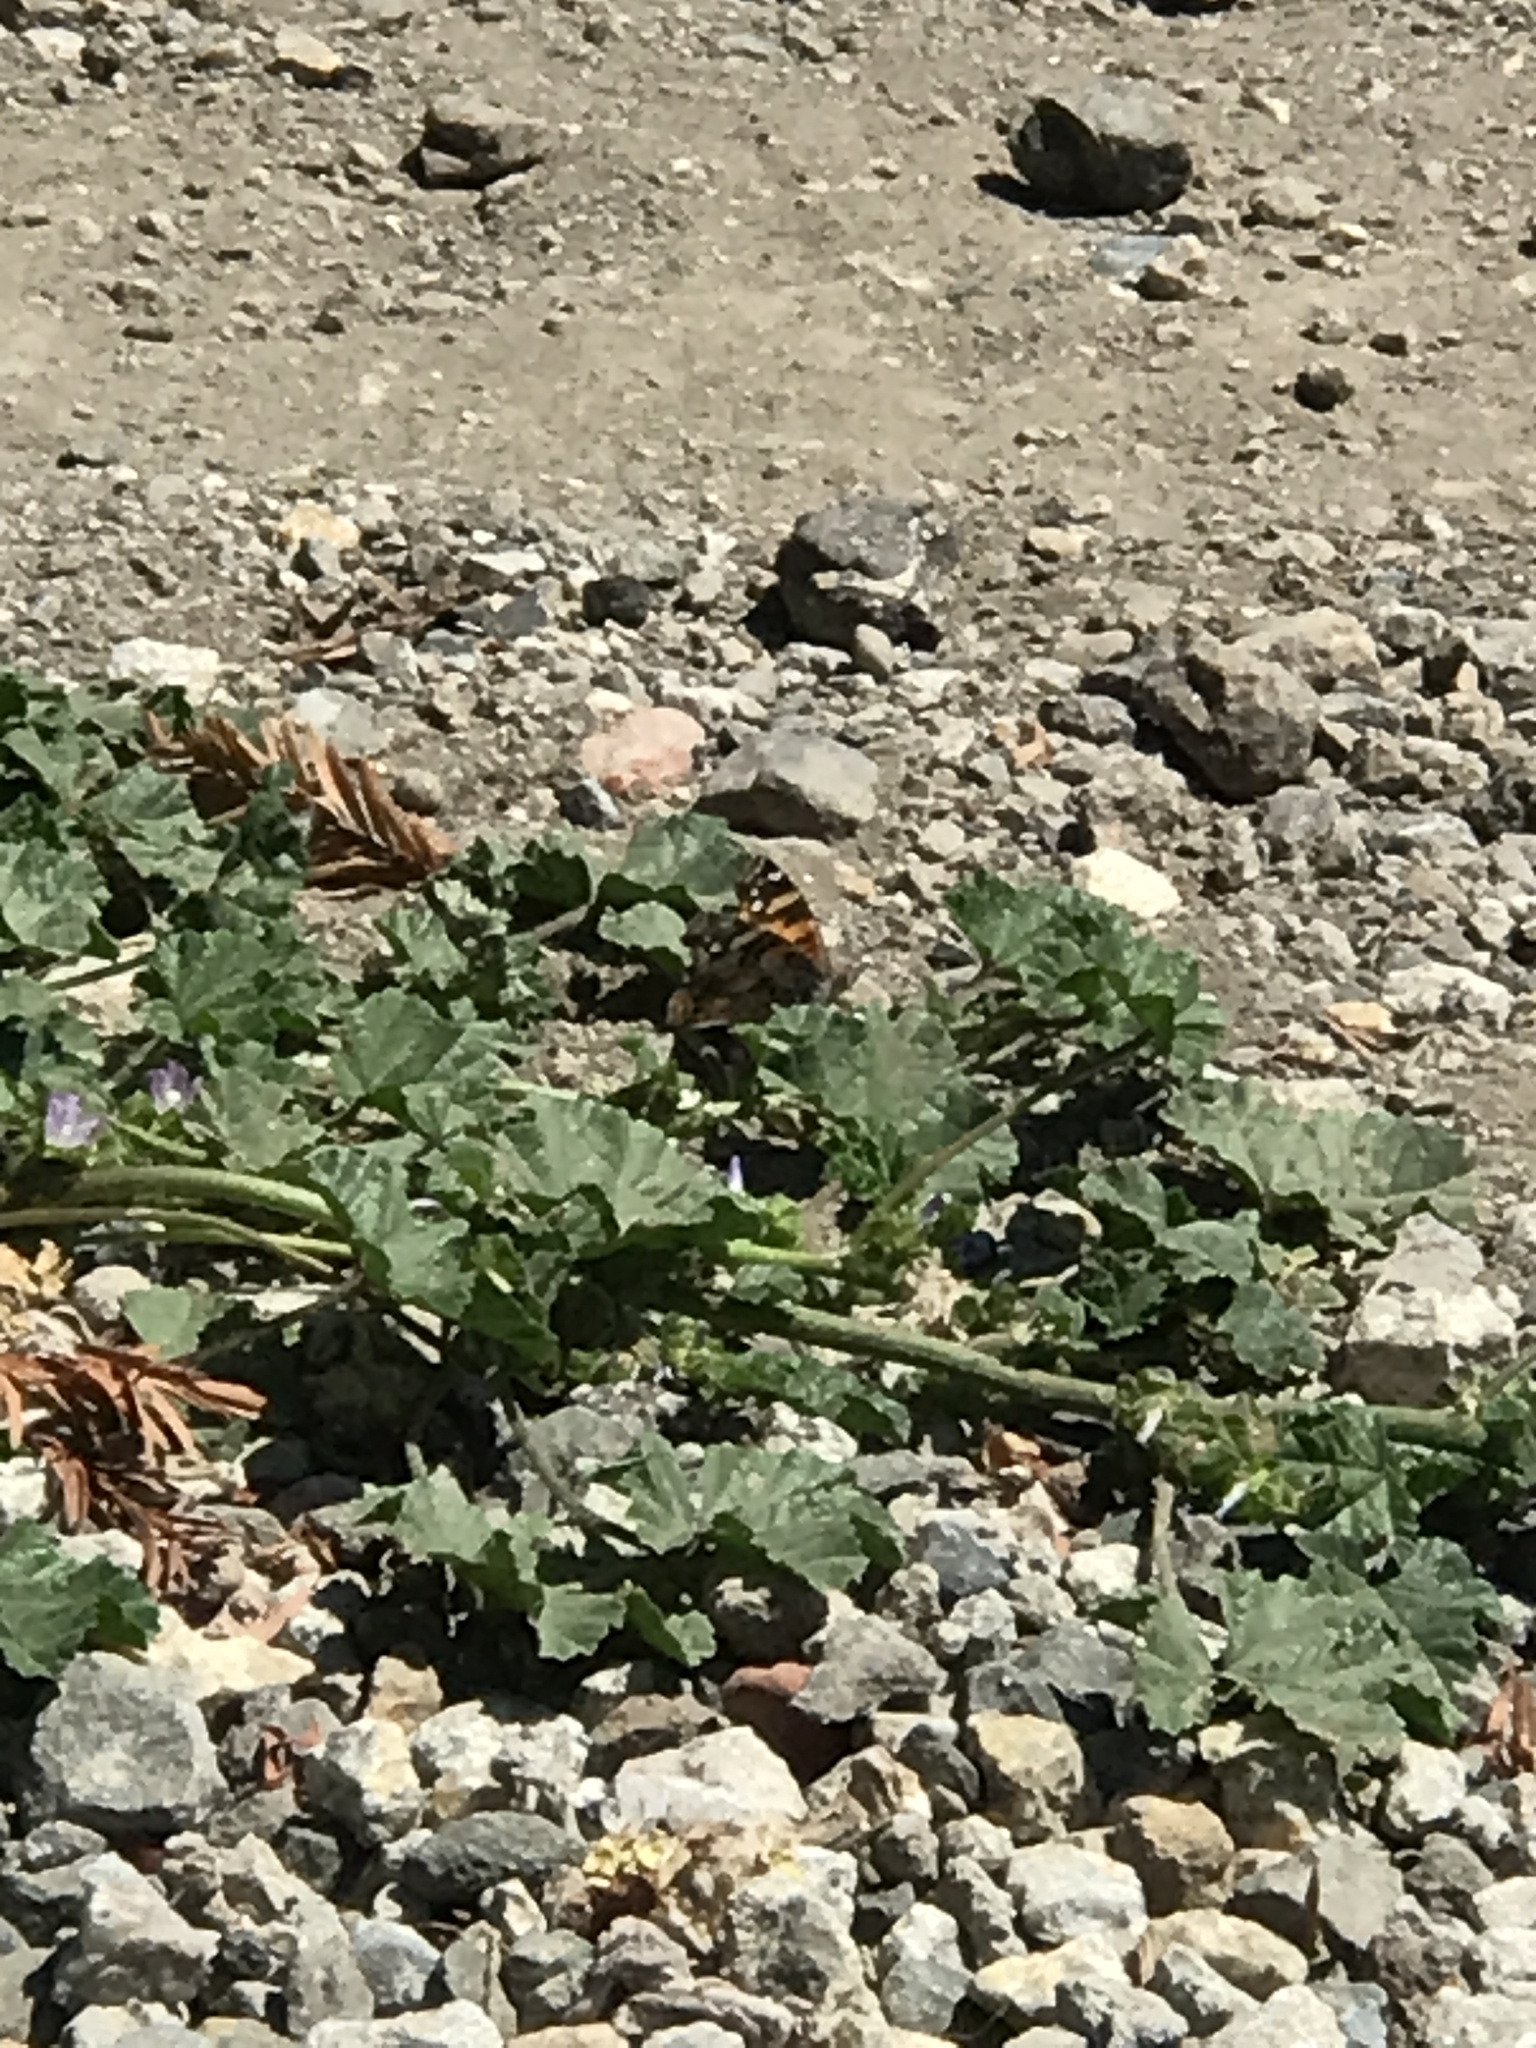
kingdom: Animalia
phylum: Arthropoda
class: Insecta
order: Lepidoptera
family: Nymphalidae
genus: Vanessa
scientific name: Vanessa annabella
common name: West coast lady
